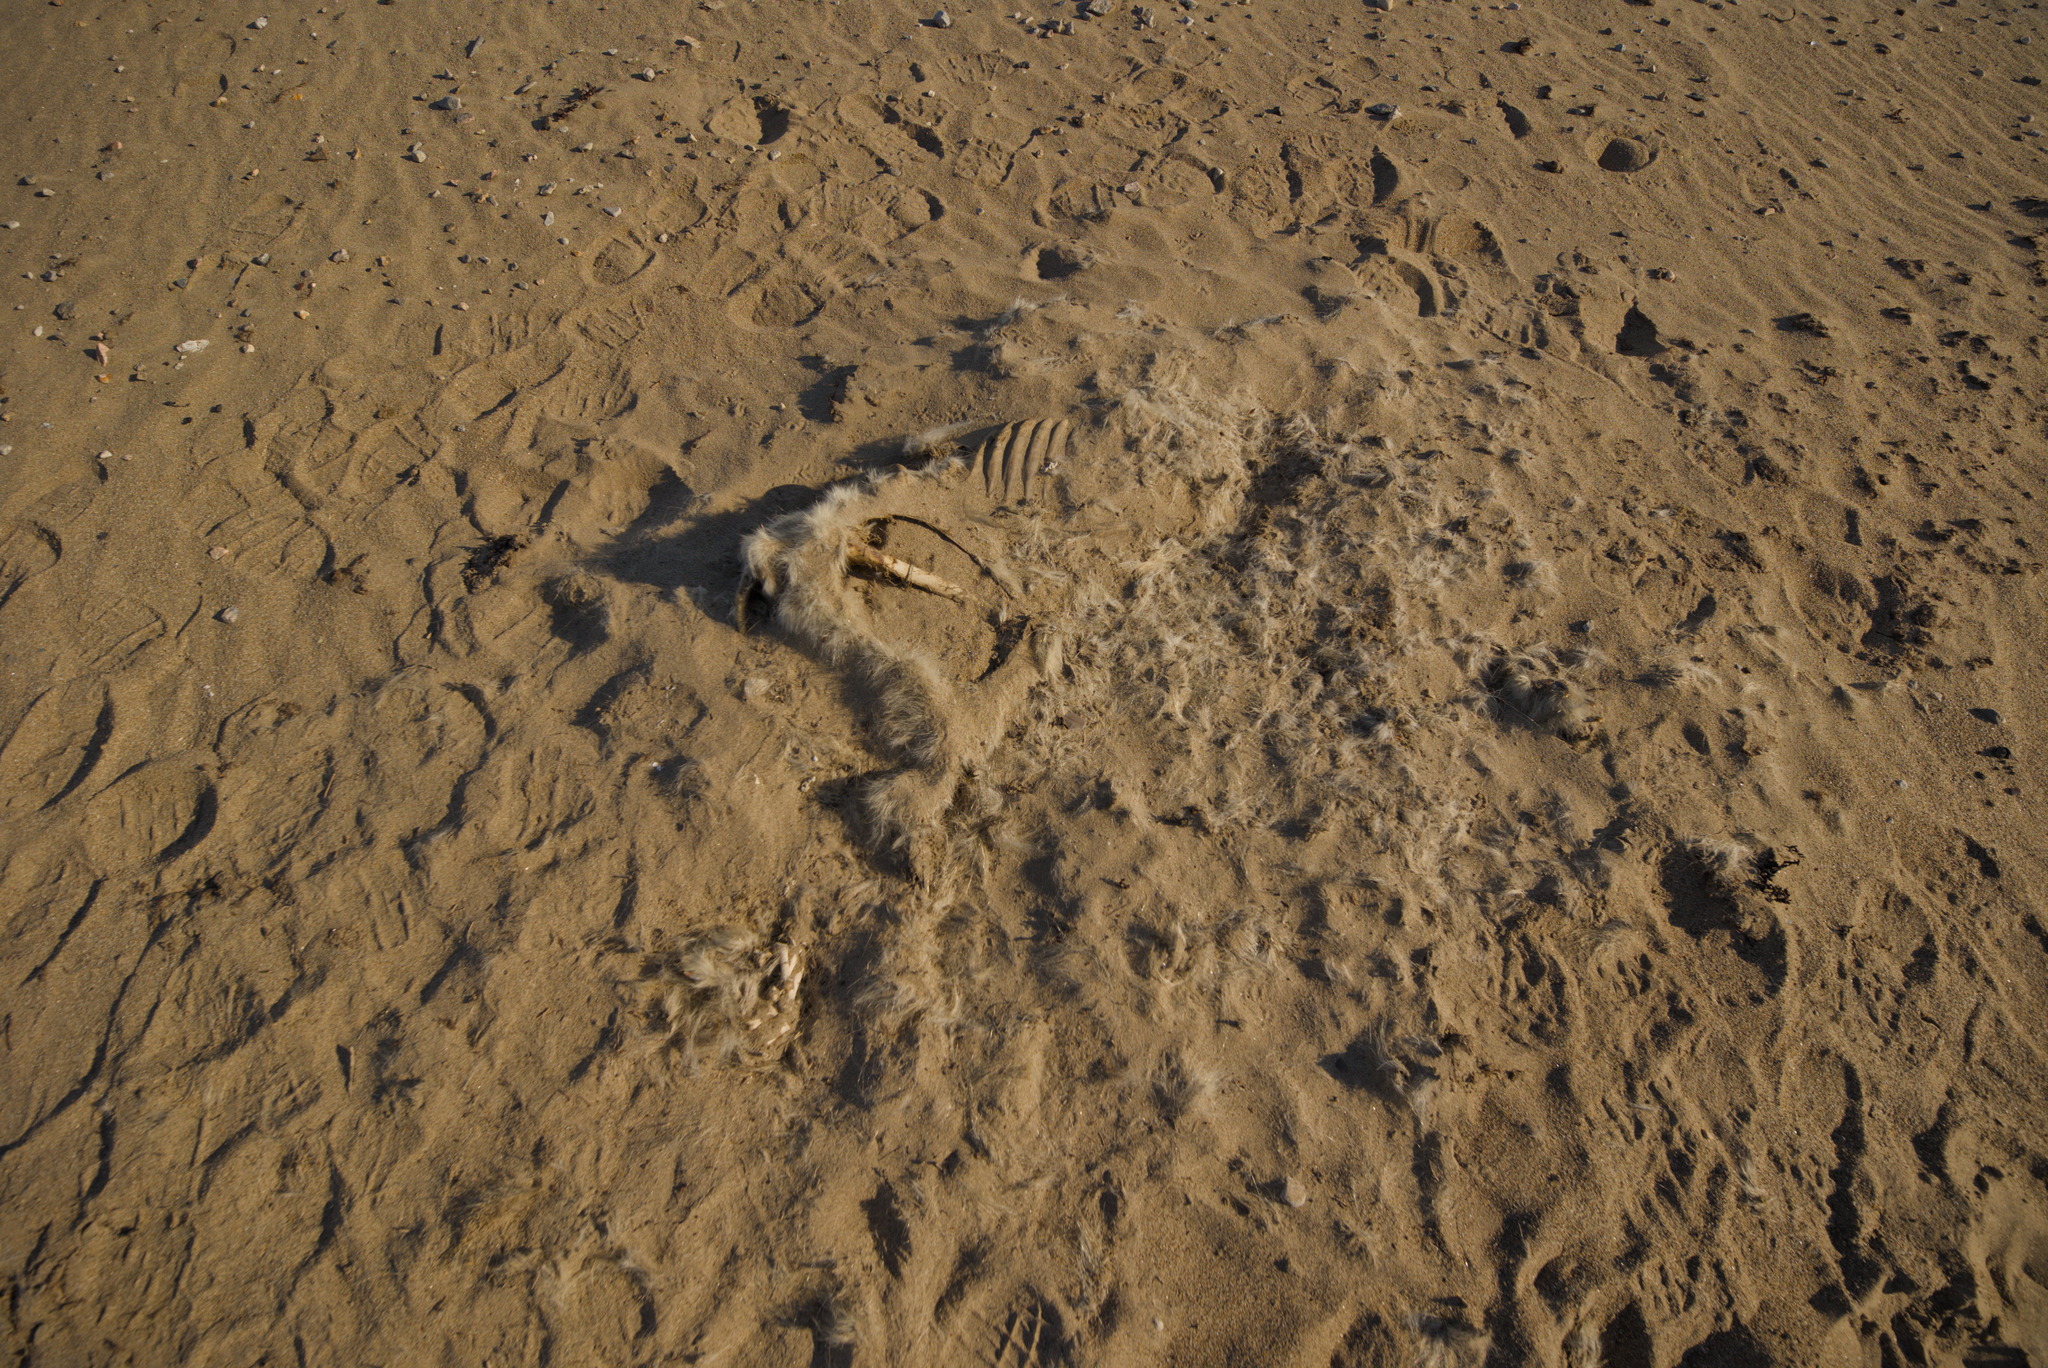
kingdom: Animalia
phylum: Chordata
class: Mammalia
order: Carnivora
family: Ursidae
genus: Ursus
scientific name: Ursus maritimus
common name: Polar bear
